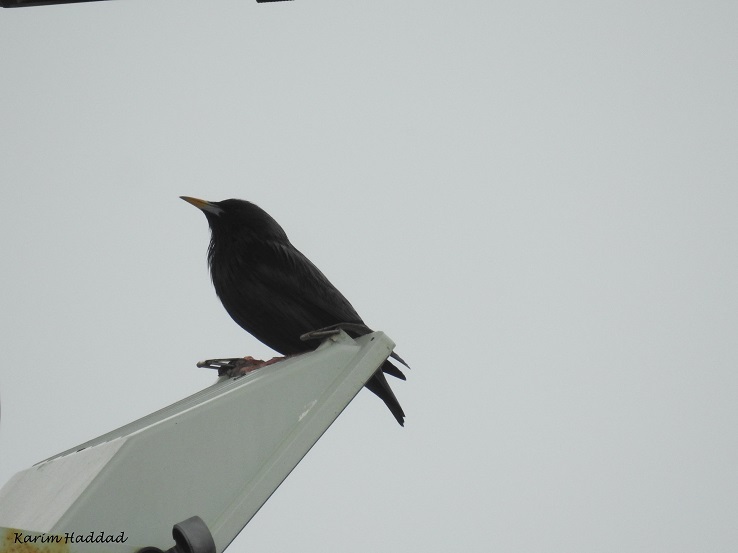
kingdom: Animalia
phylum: Chordata
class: Aves
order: Passeriformes
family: Sturnidae
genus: Sturnus
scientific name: Sturnus unicolor
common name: Spotless starling
